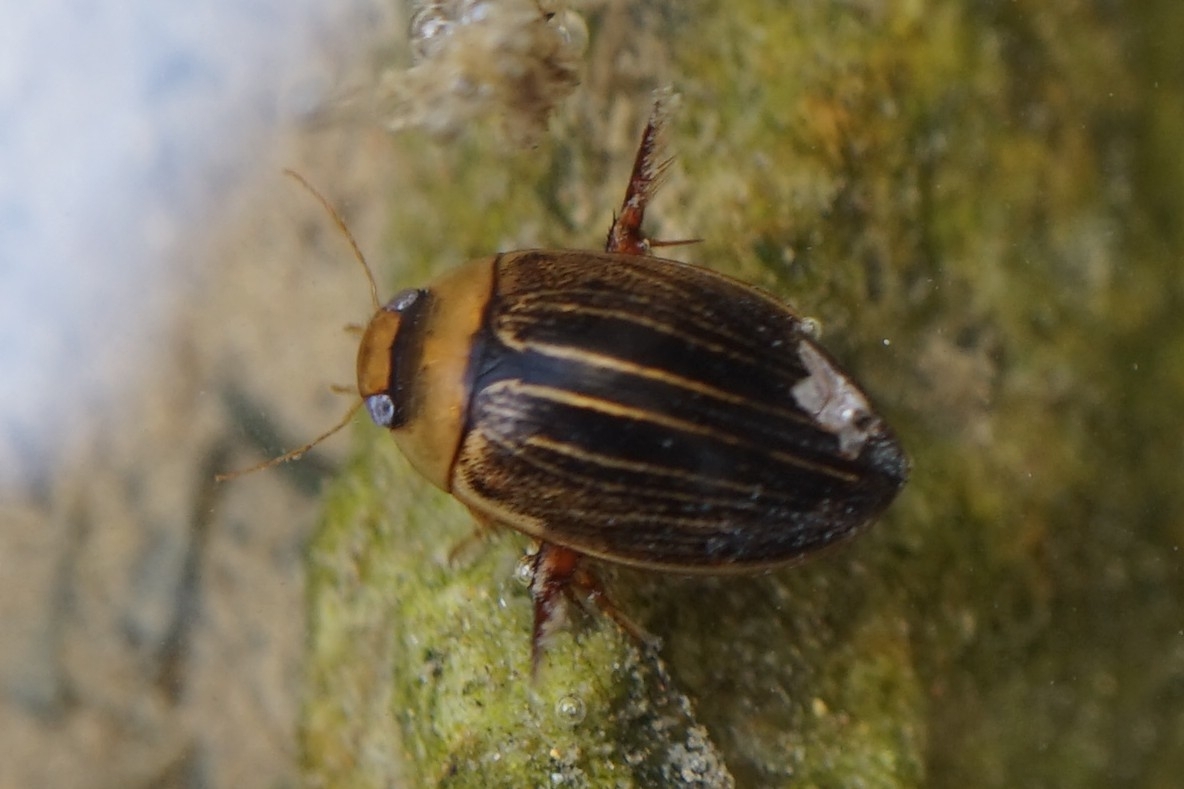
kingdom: Animalia
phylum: Arthropoda
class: Insecta
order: Coleoptera
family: Dytiscidae
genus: Hydaticus
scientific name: Hydaticus grammicus
